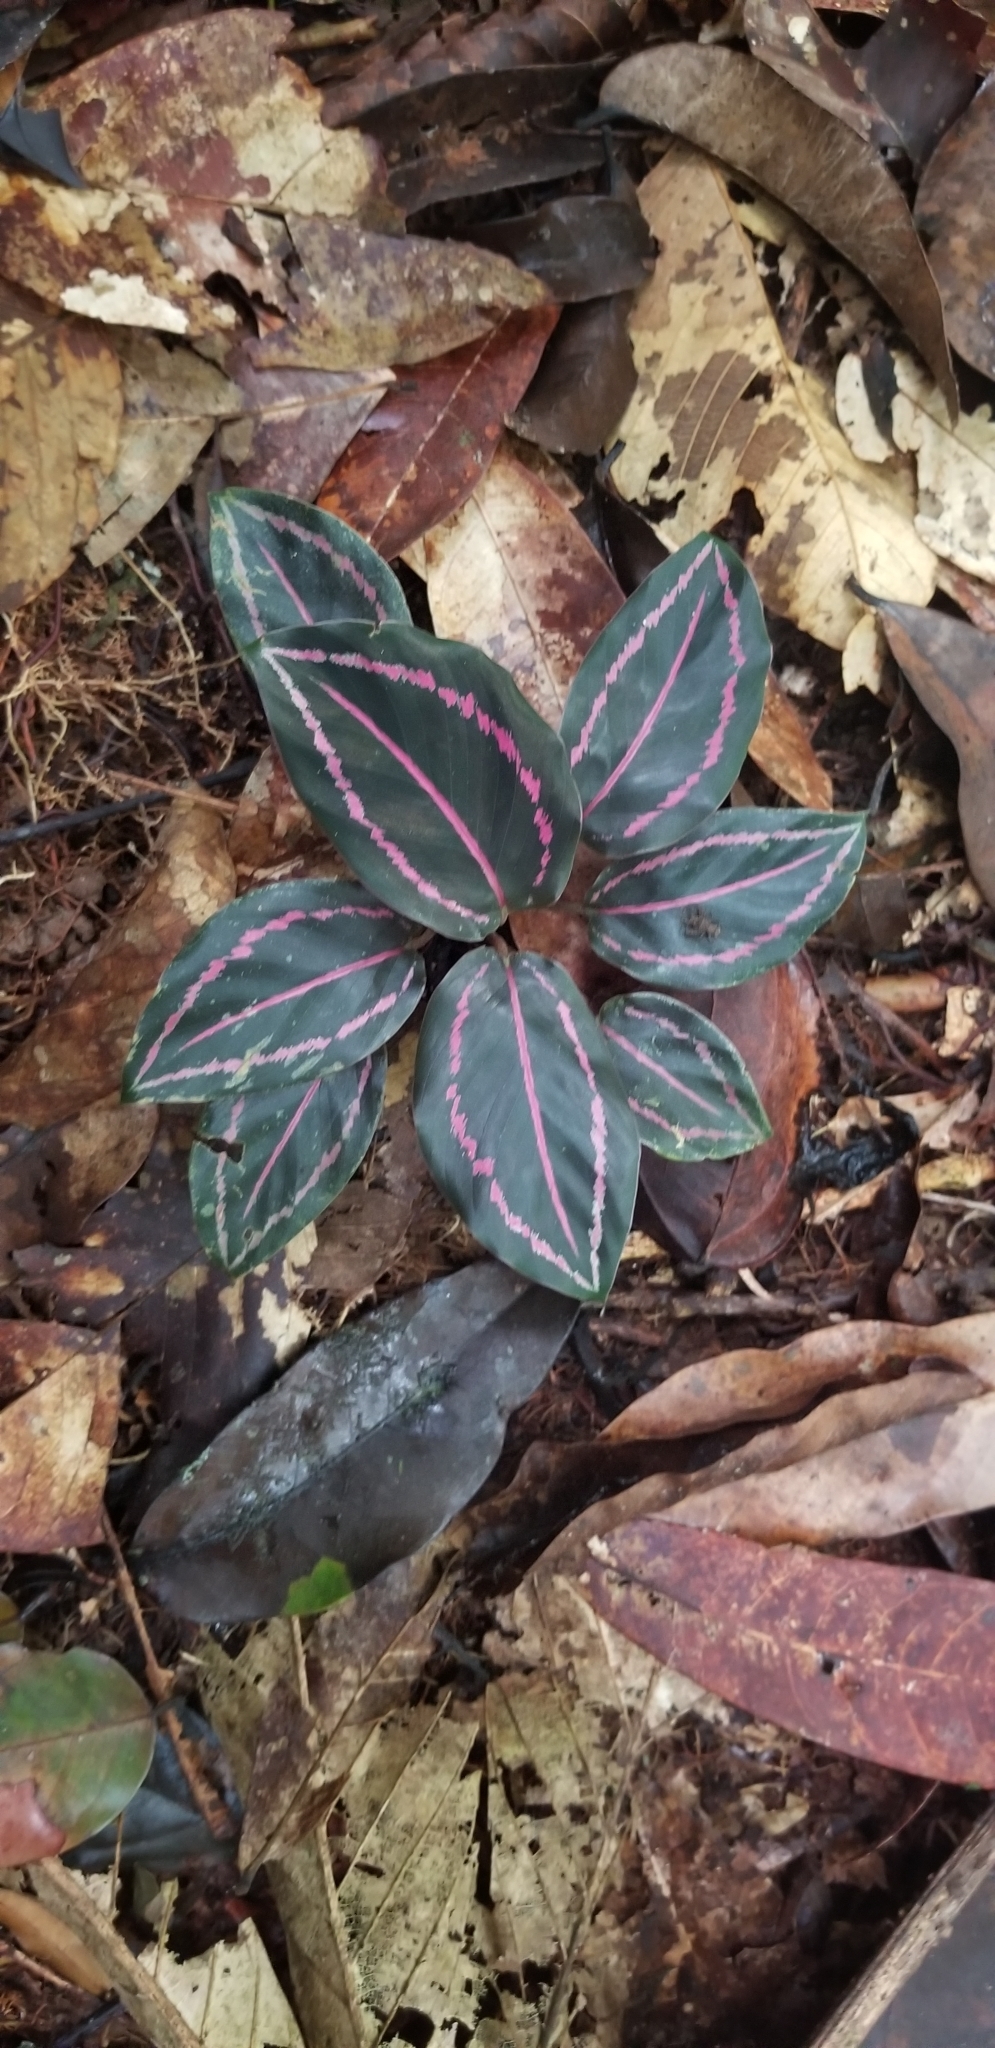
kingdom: Plantae
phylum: Tracheophyta
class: Liliopsida
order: Zingiberales
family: Marantaceae
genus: Goeppertia
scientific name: Goeppertia roseopicta
